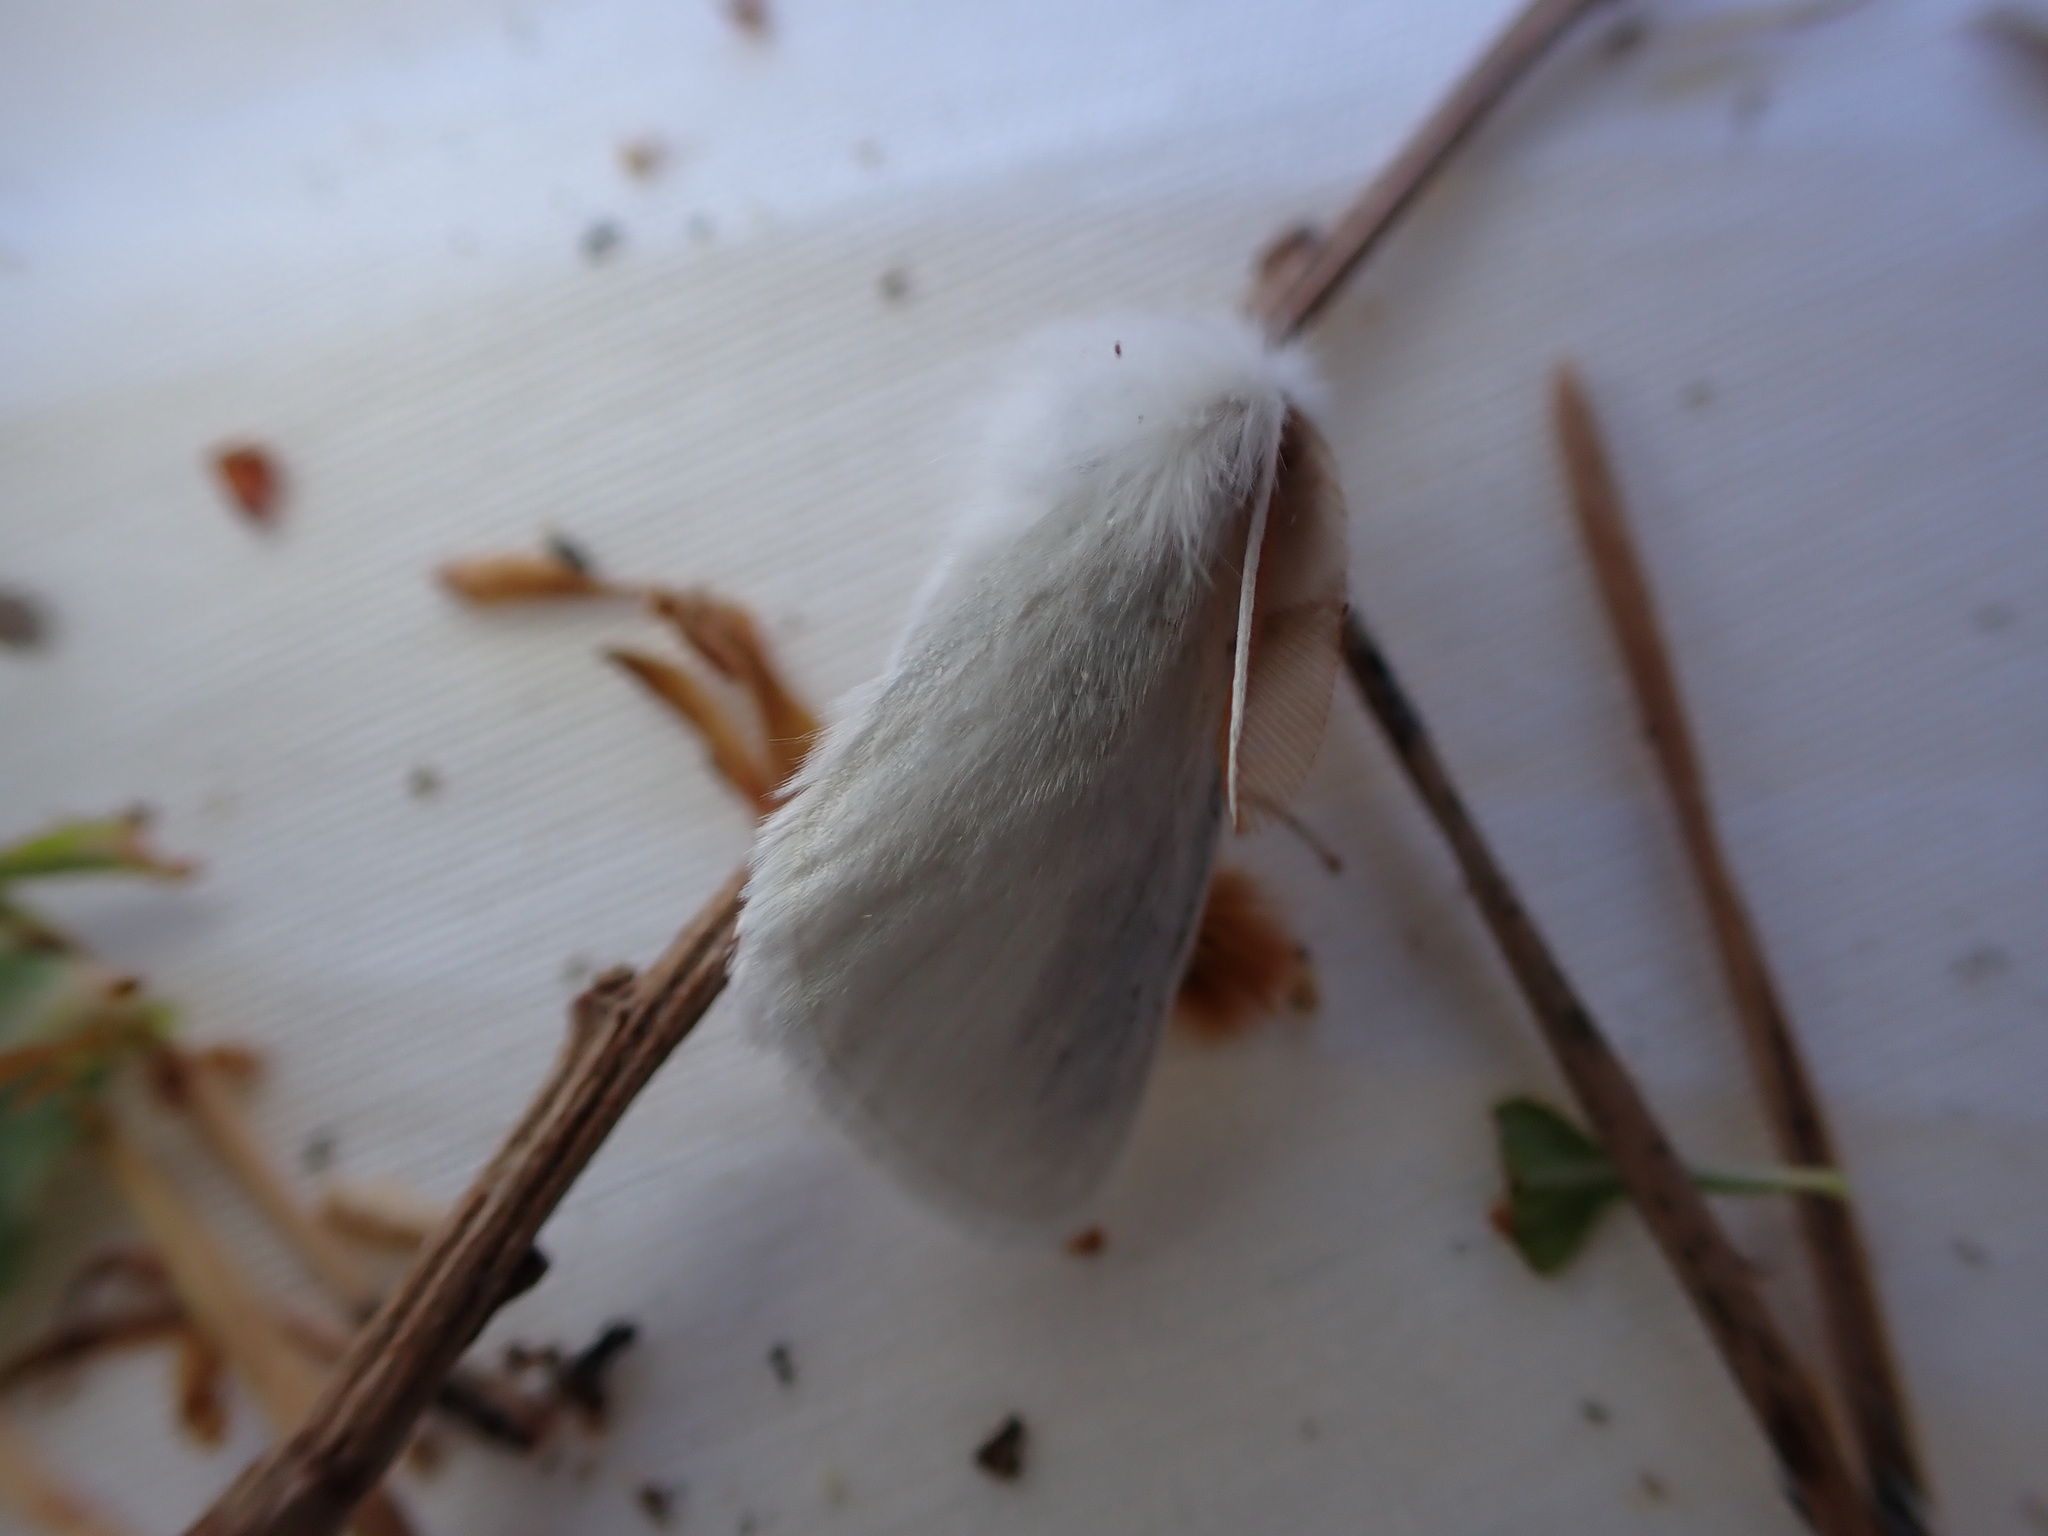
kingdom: Animalia
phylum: Arthropoda
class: Insecta
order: Lepidoptera
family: Erebidae
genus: Euproctis
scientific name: Euproctis chrysorrhoea
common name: Brown-tail
